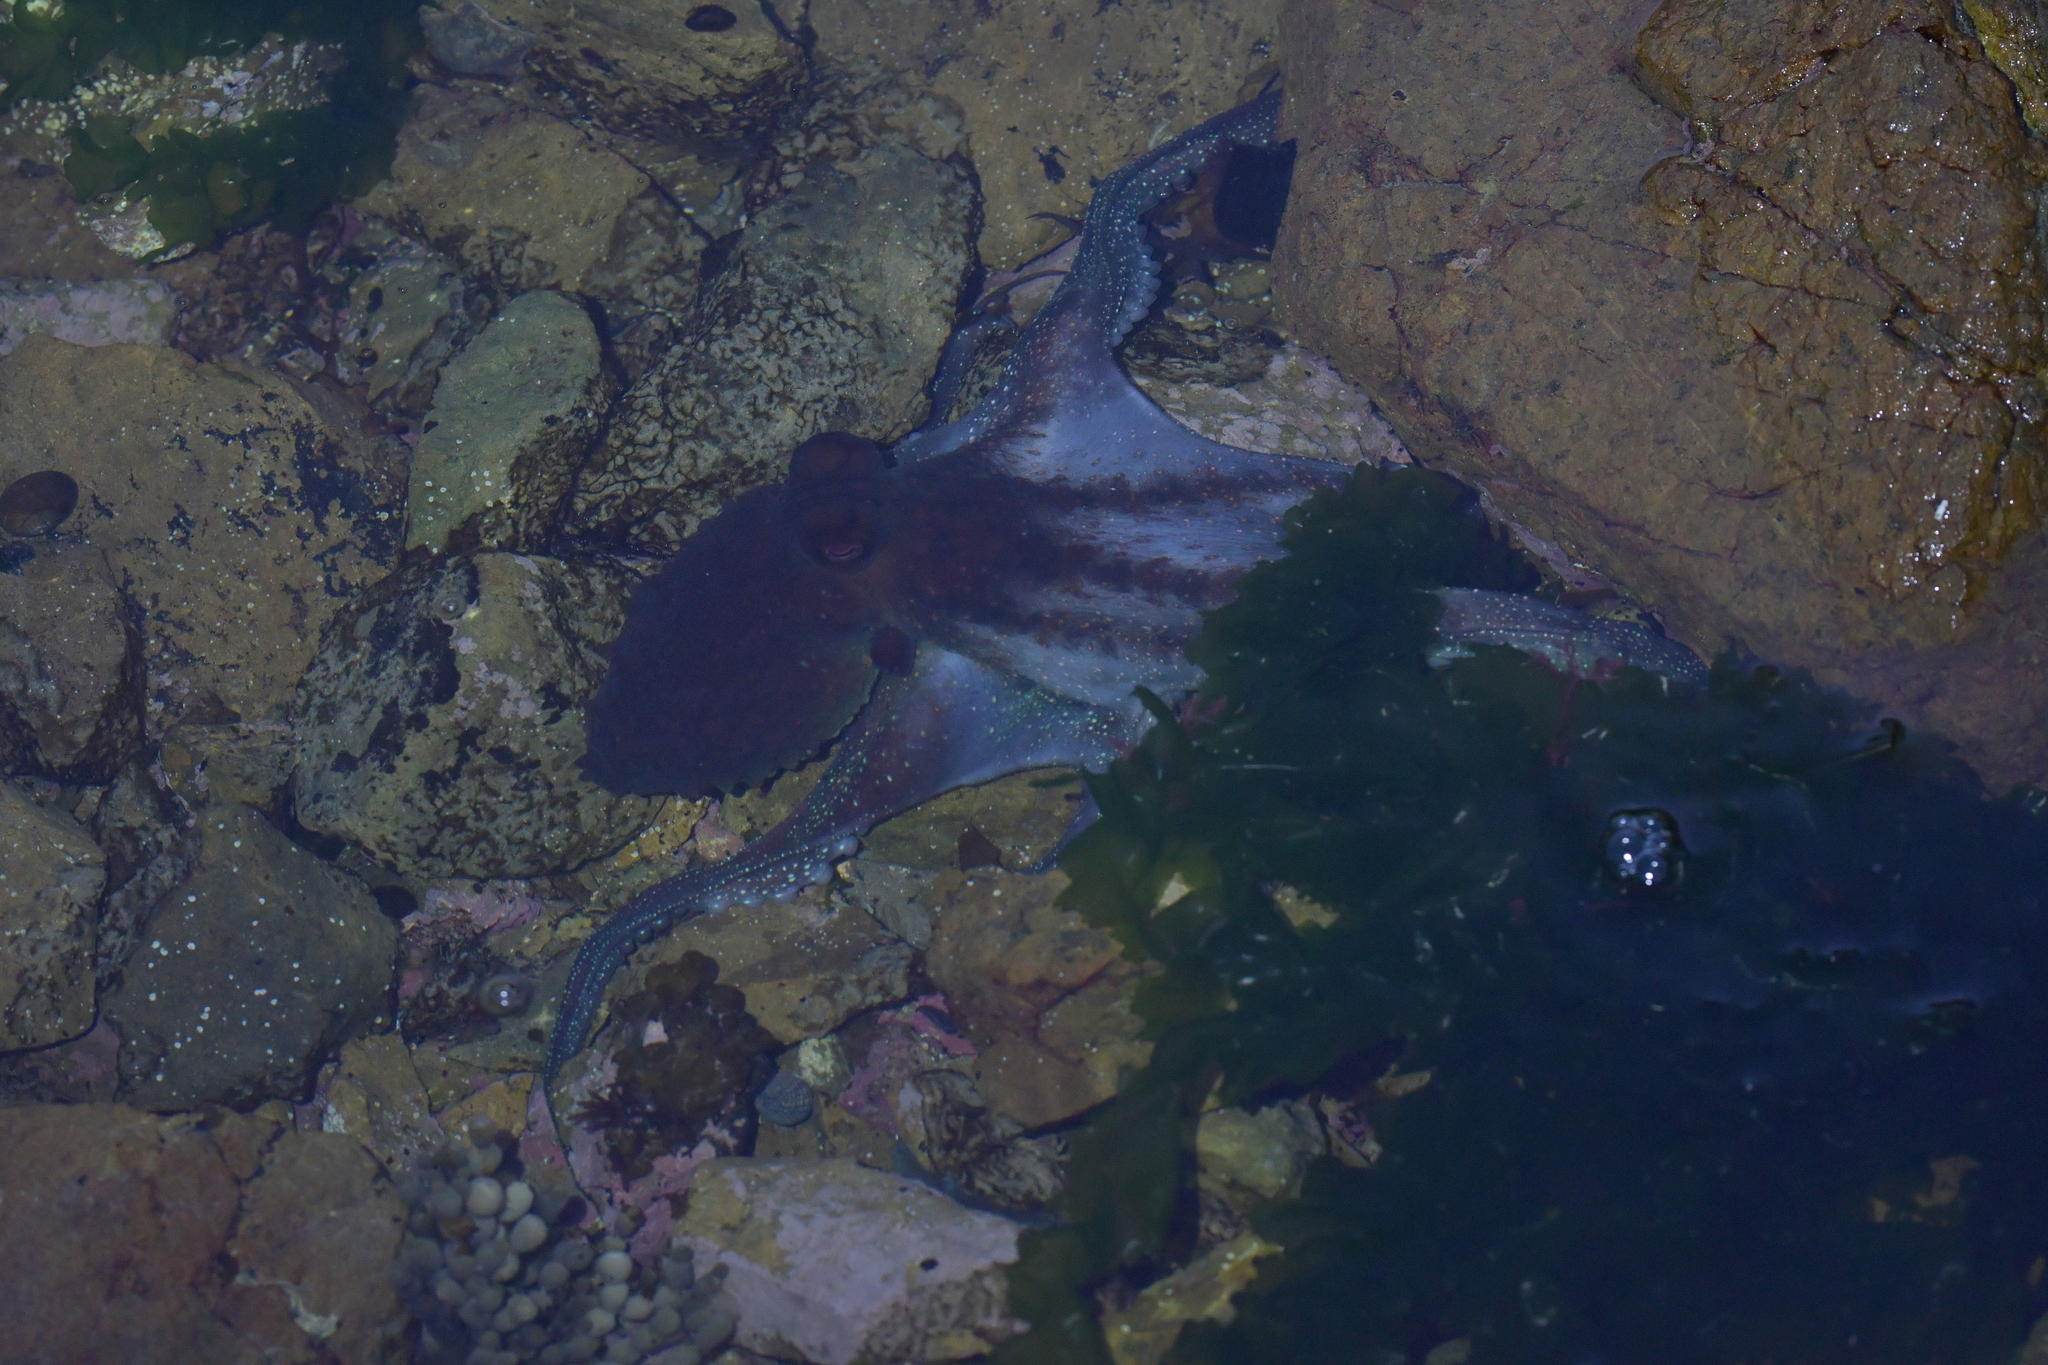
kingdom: Animalia
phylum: Mollusca
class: Cephalopoda
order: Octopoda
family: Octopodidae
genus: Macroctopus
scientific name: Macroctopus maorum
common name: Maori octopus
